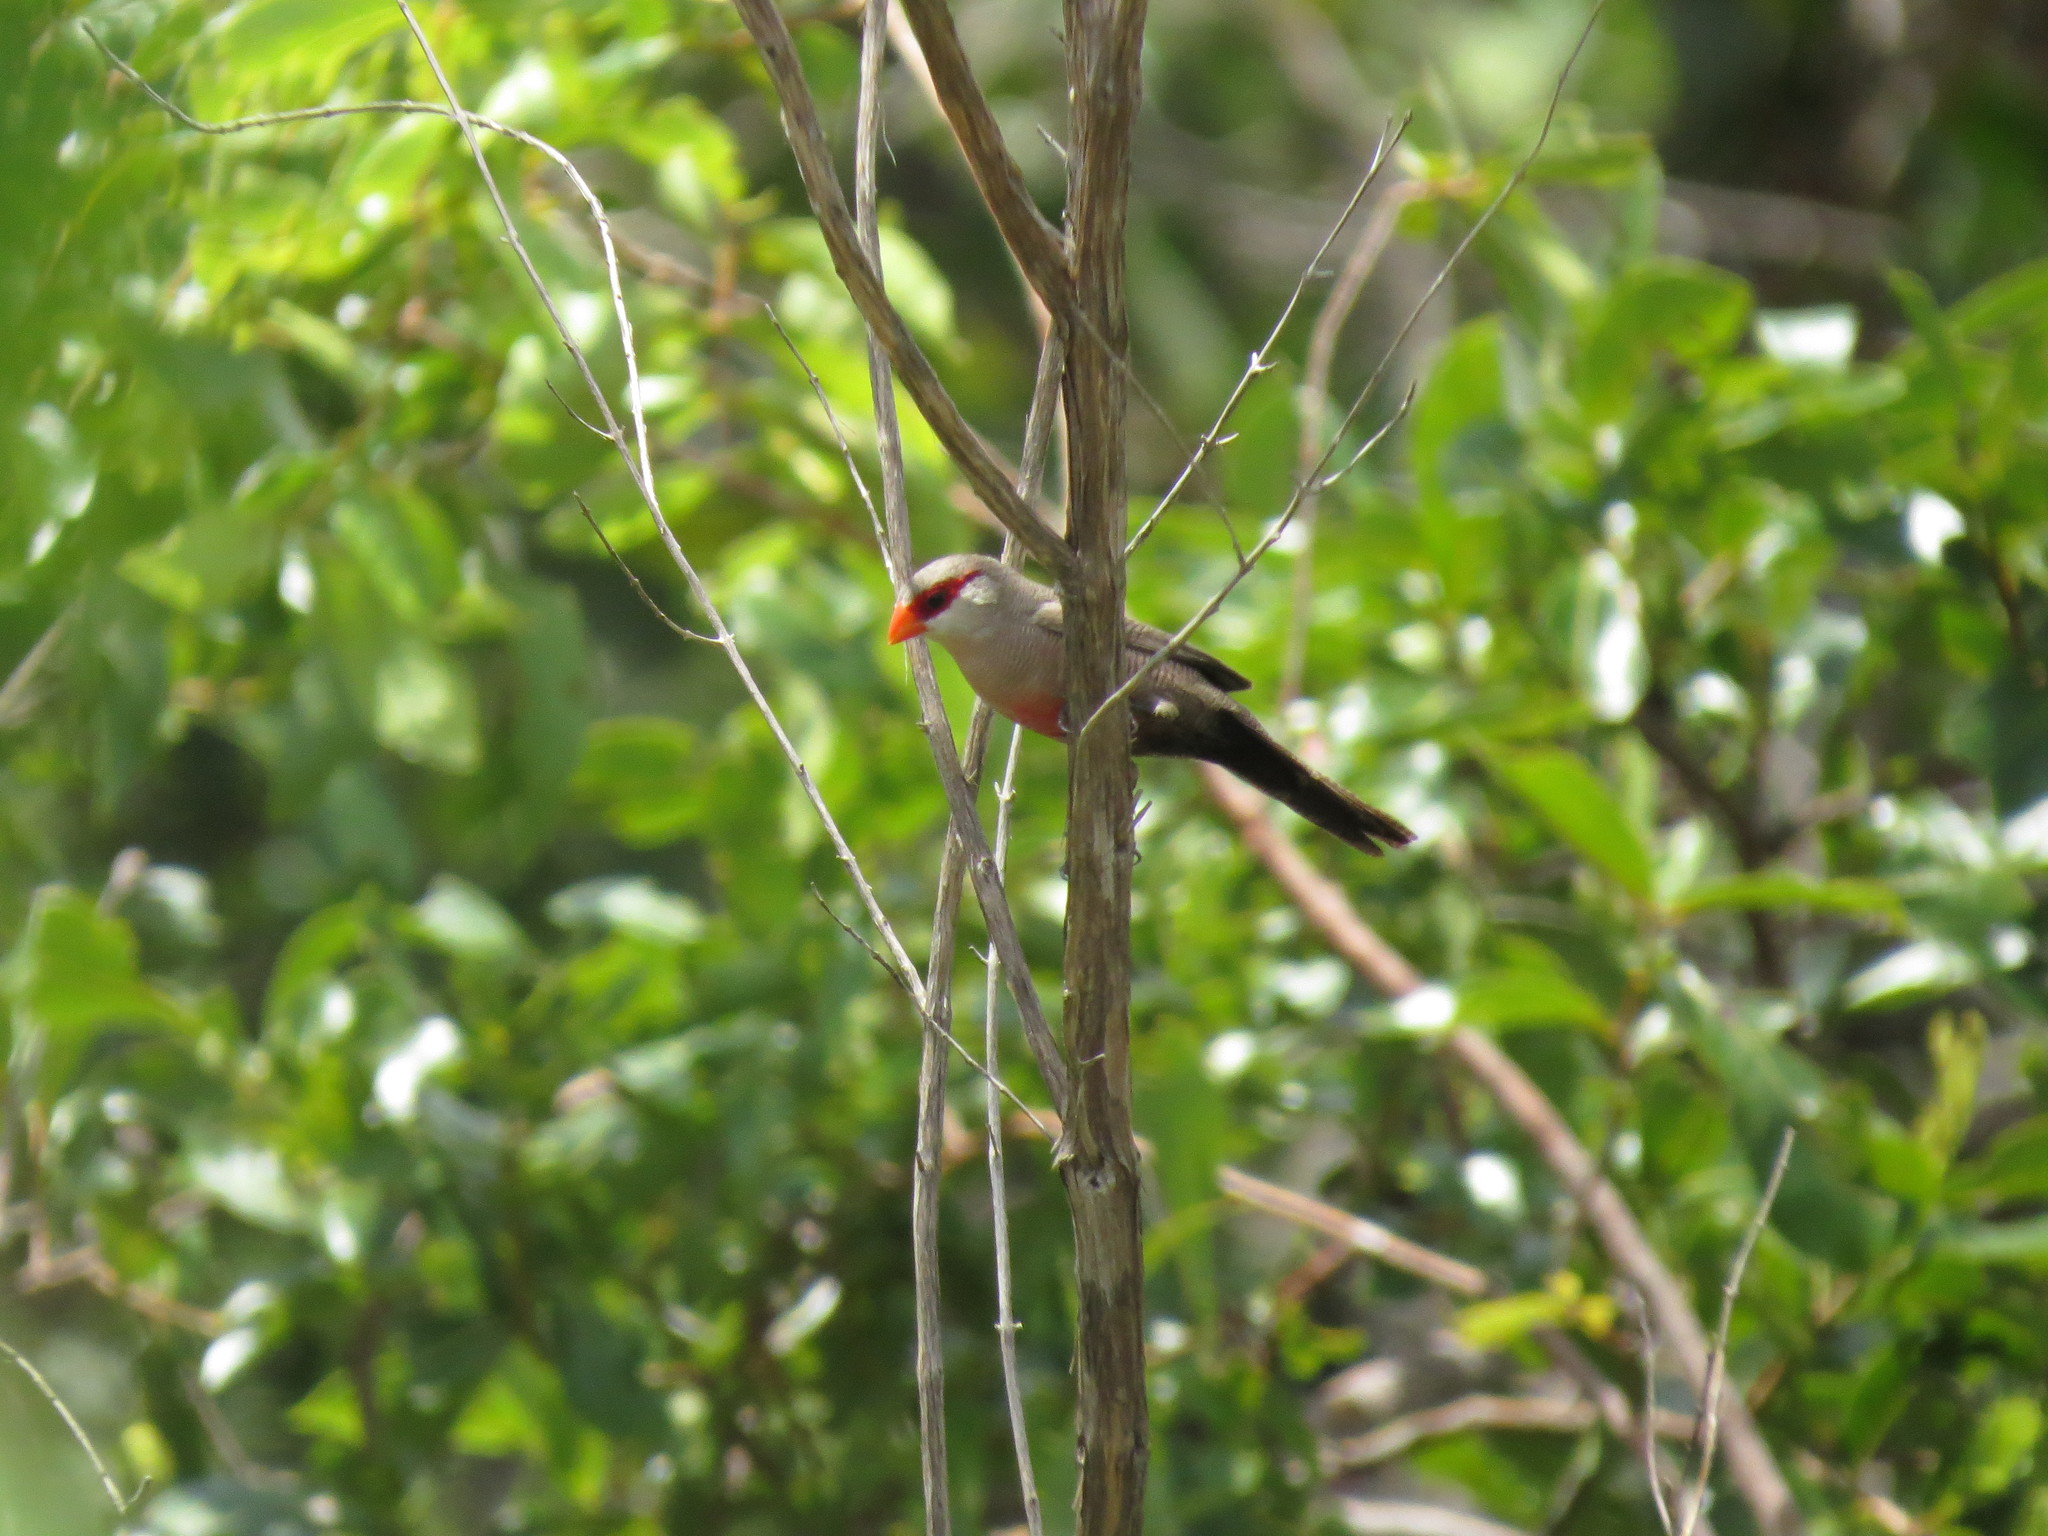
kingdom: Animalia
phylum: Chordata
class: Aves
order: Passeriformes
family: Estrildidae
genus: Estrilda
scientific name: Estrilda astrild
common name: Common waxbill
